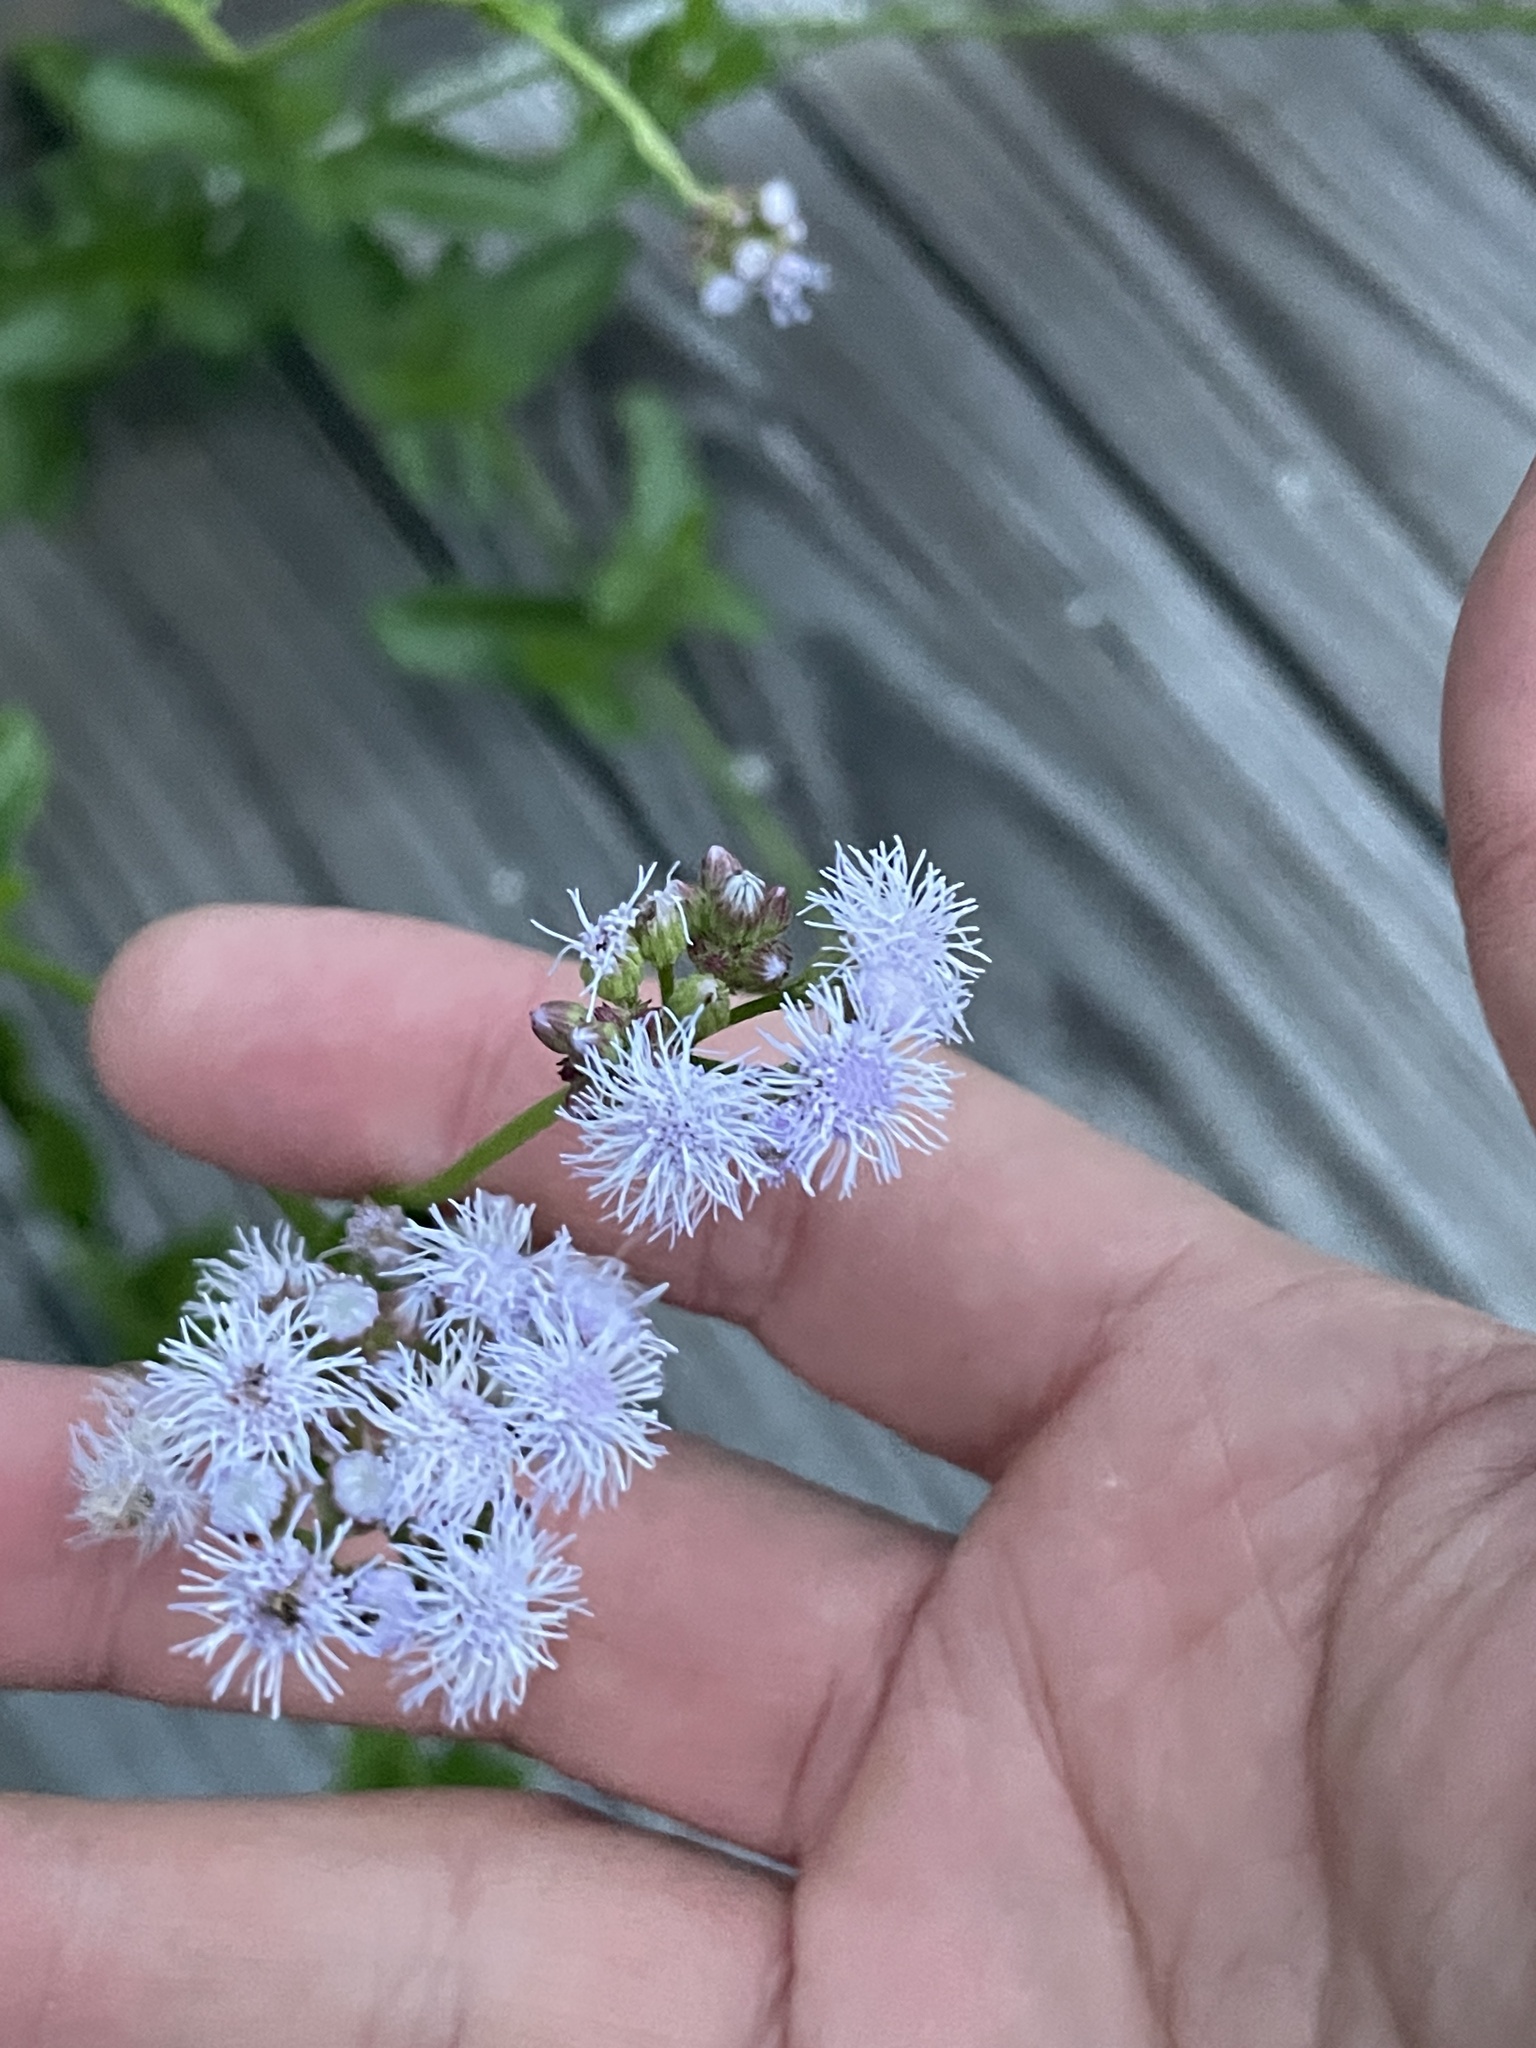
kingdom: Plantae
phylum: Tracheophyta
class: Magnoliopsida
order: Asterales
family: Asteraceae
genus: Conoclinium
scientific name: Conoclinium betonicifolium
